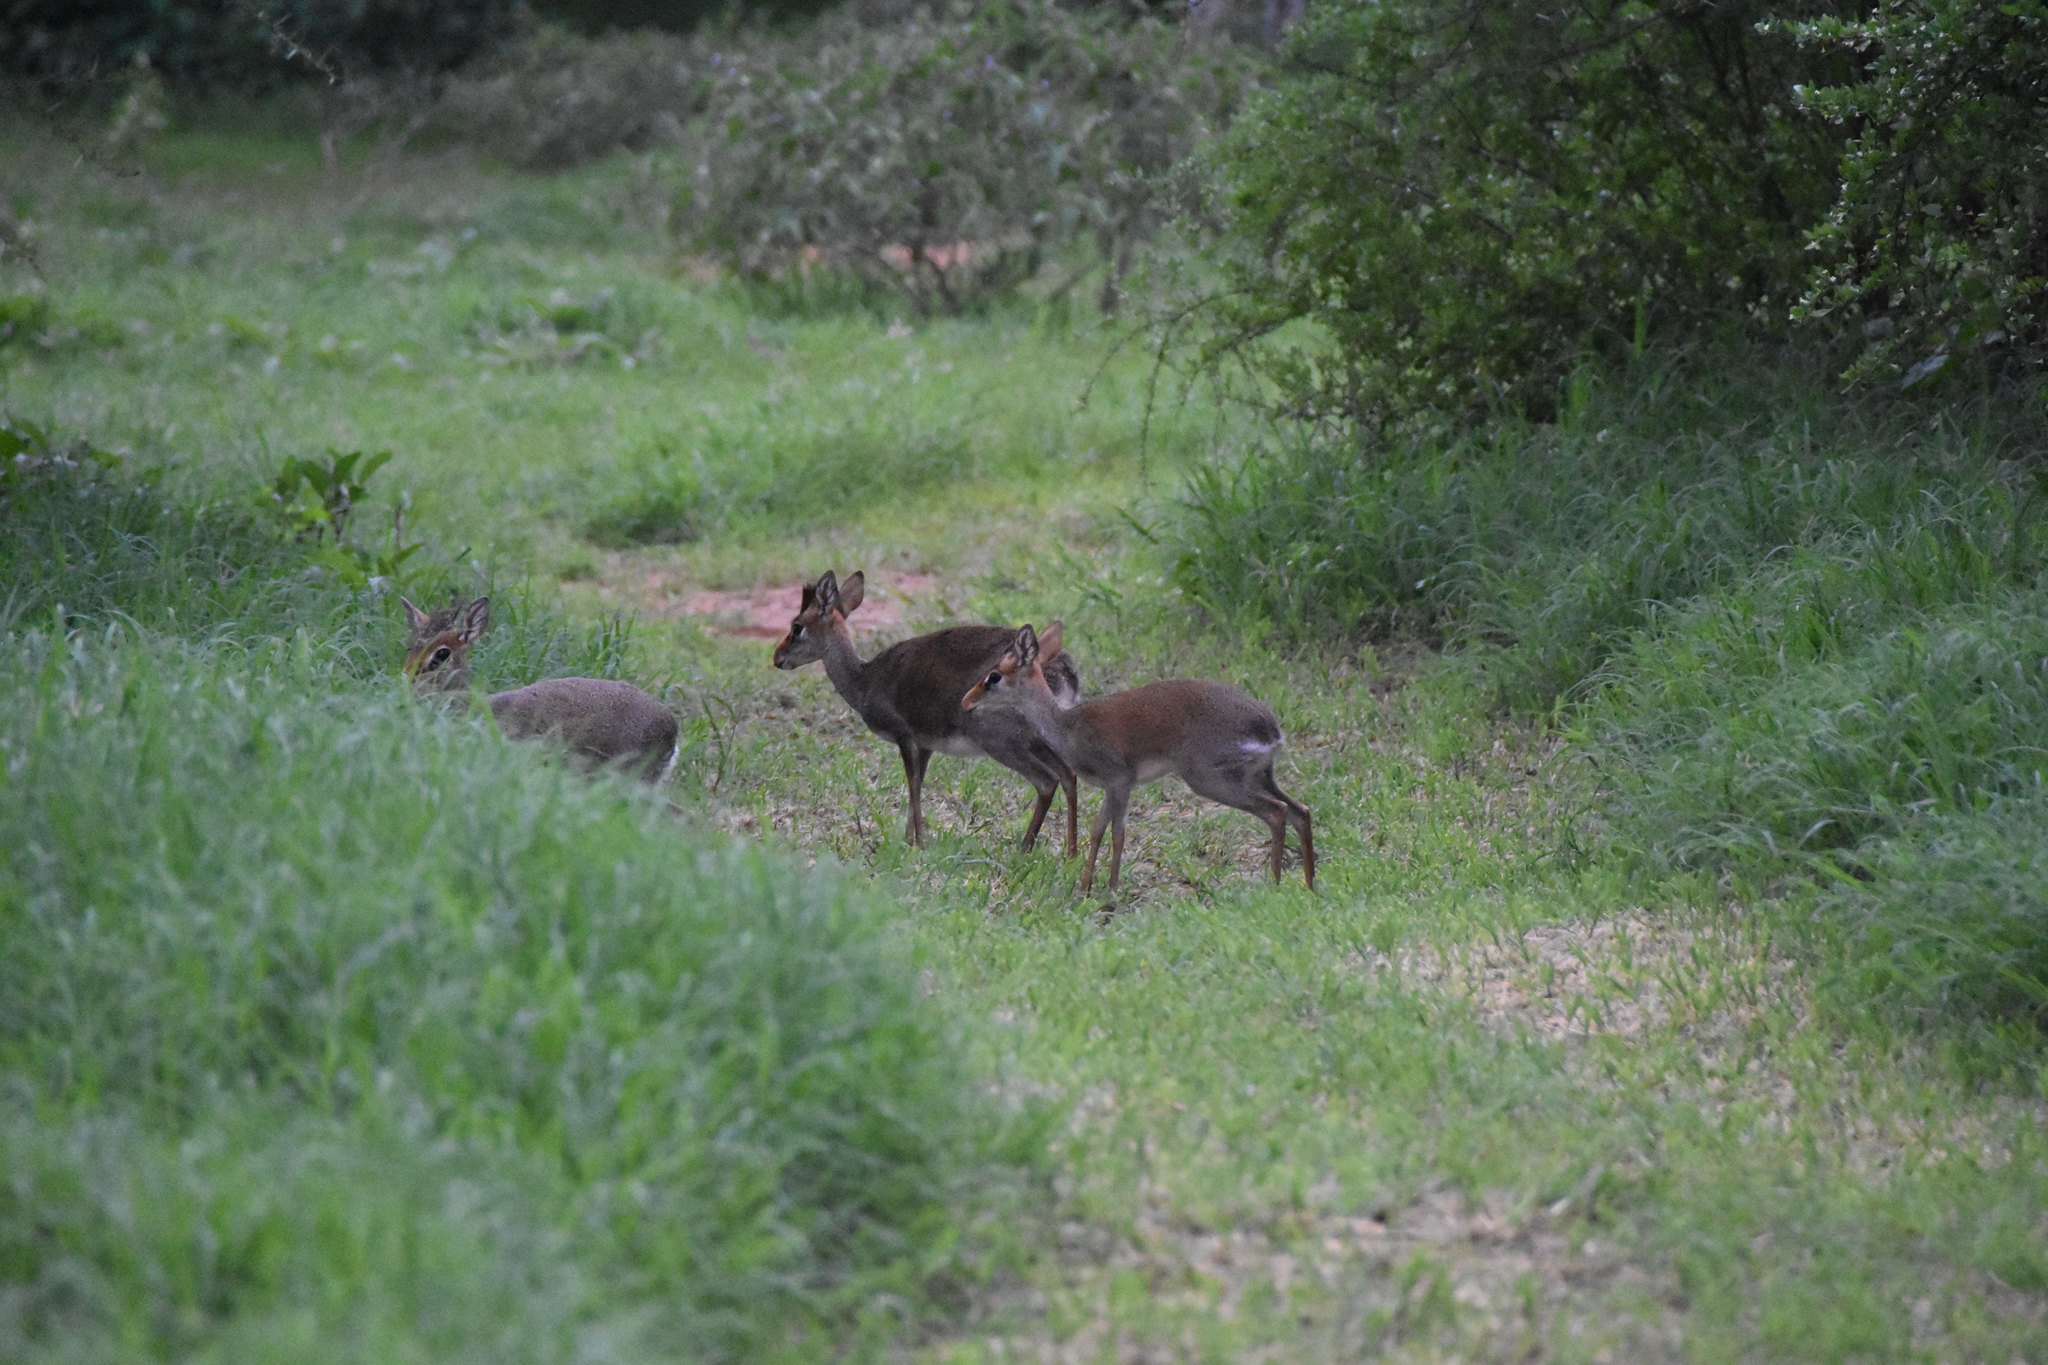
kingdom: Animalia
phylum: Chordata
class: Mammalia
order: Artiodactyla
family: Bovidae
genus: Madoqua
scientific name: Madoqua guentheri
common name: Günther's dikdik
